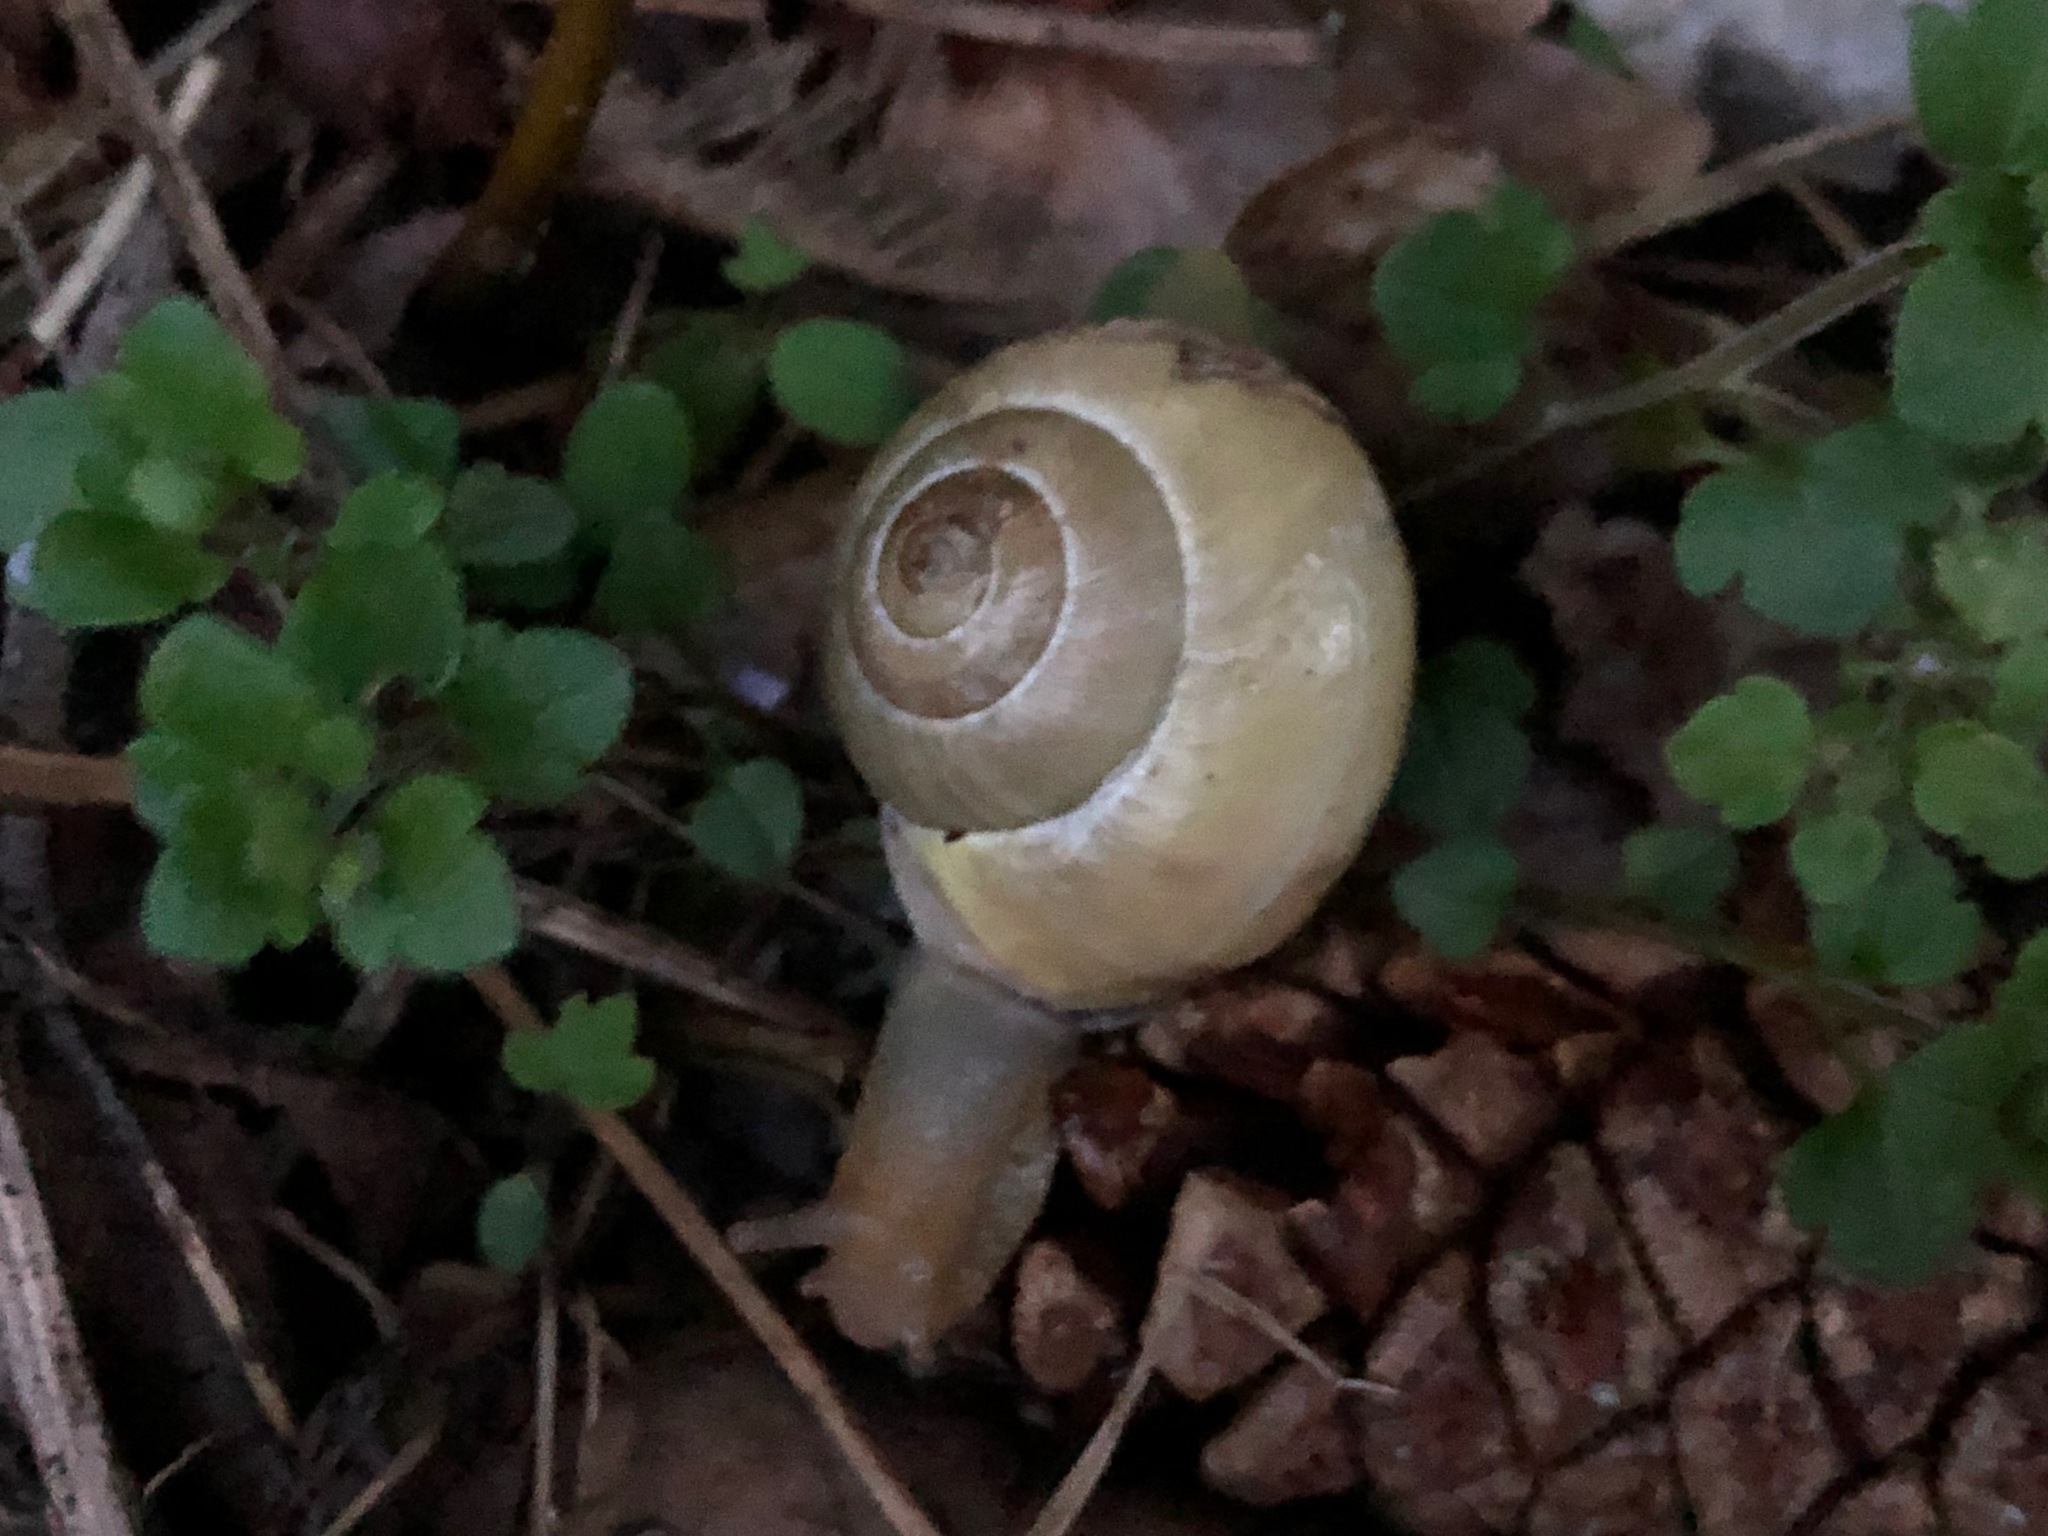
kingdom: Animalia
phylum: Mollusca
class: Gastropoda
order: Stylommatophora
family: Helicidae
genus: Cepaea
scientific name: Cepaea hortensis
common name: White-lip gardensnail
